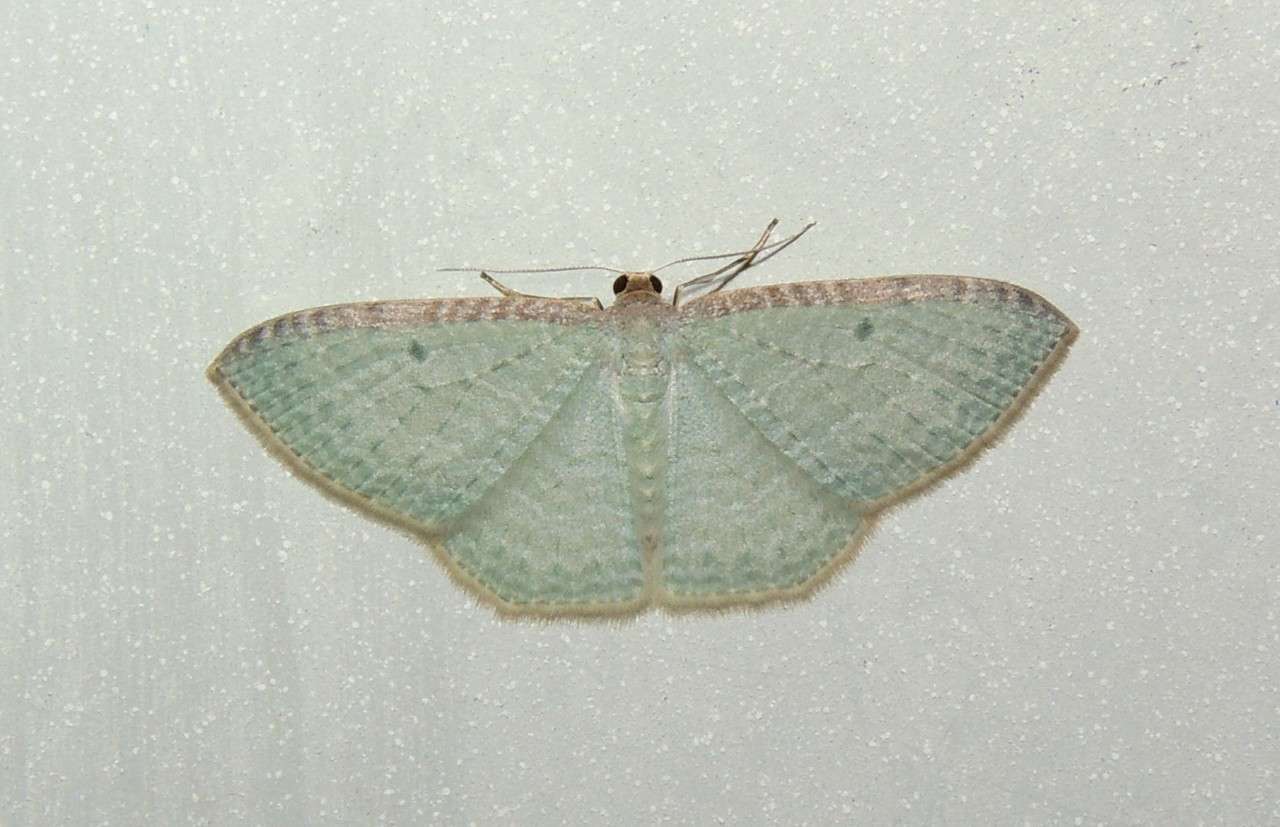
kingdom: Animalia
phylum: Arthropoda
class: Insecta
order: Lepidoptera
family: Geometridae
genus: Poecilasthena
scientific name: Poecilasthena pulchraria
